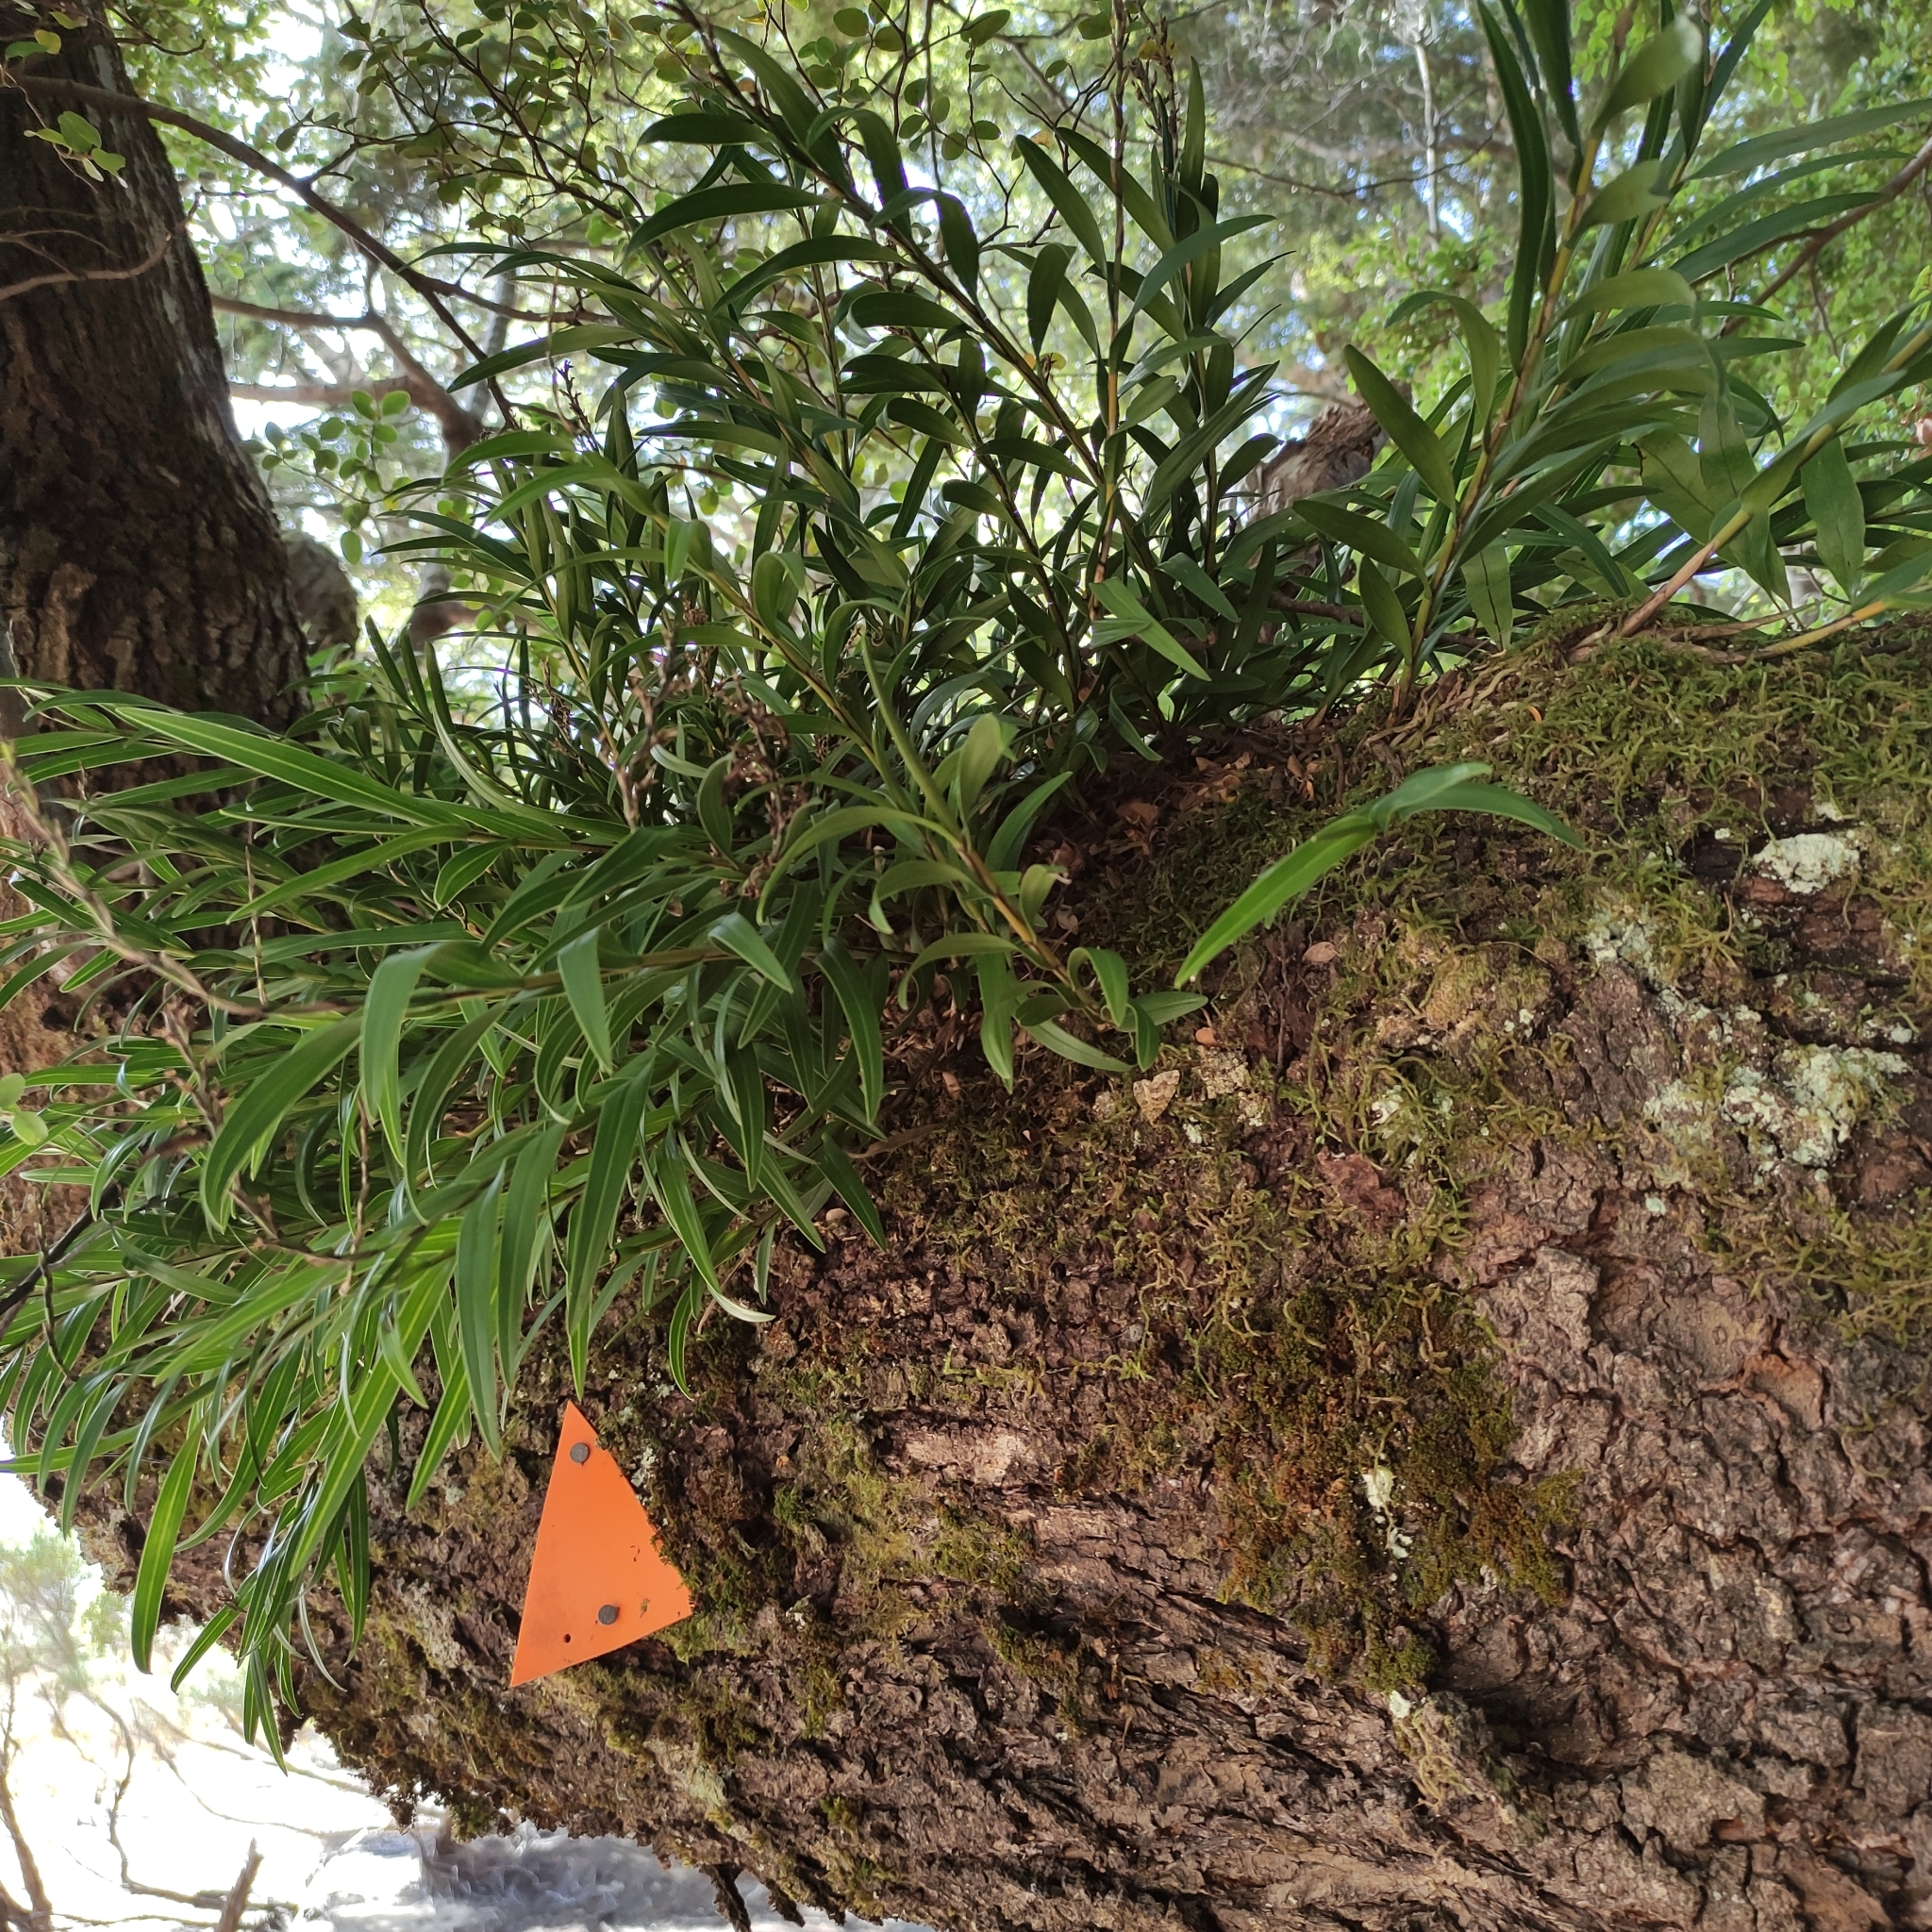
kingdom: Plantae
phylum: Tracheophyta
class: Liliopsida
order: Asparagales
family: Orchidaceae
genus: Earina
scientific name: Earina autumnalis
